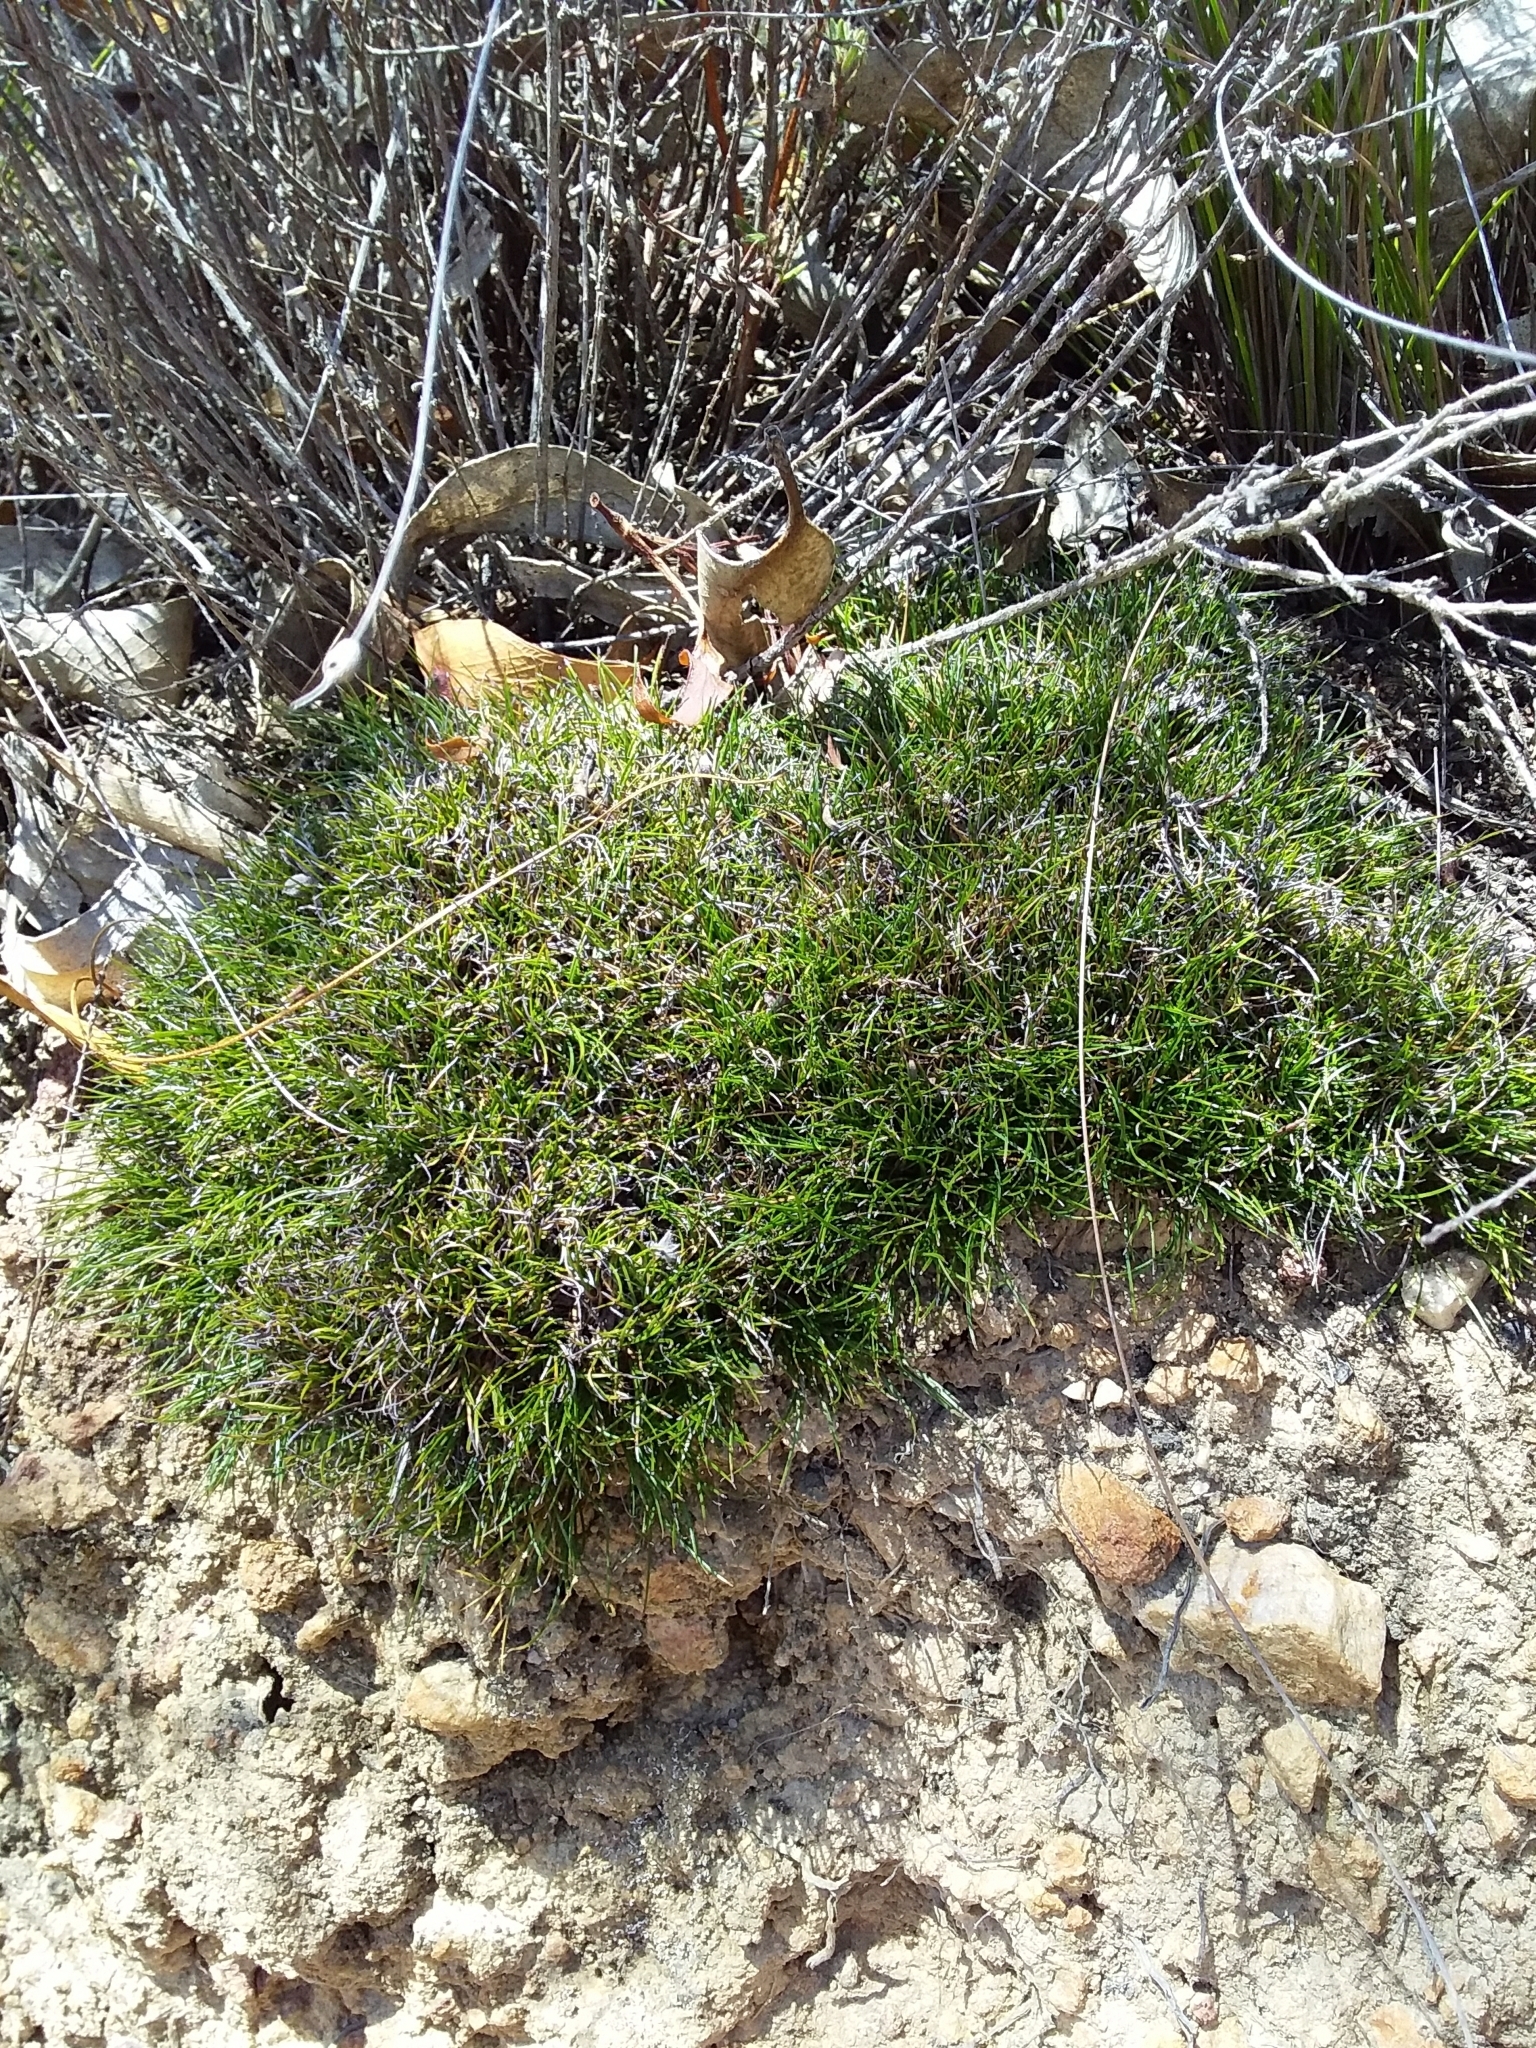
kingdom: Plantae
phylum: Tracheophyta
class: Liliopsida
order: Poales
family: Cyperaceae
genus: Schoenus
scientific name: Schoenus breviculmis
